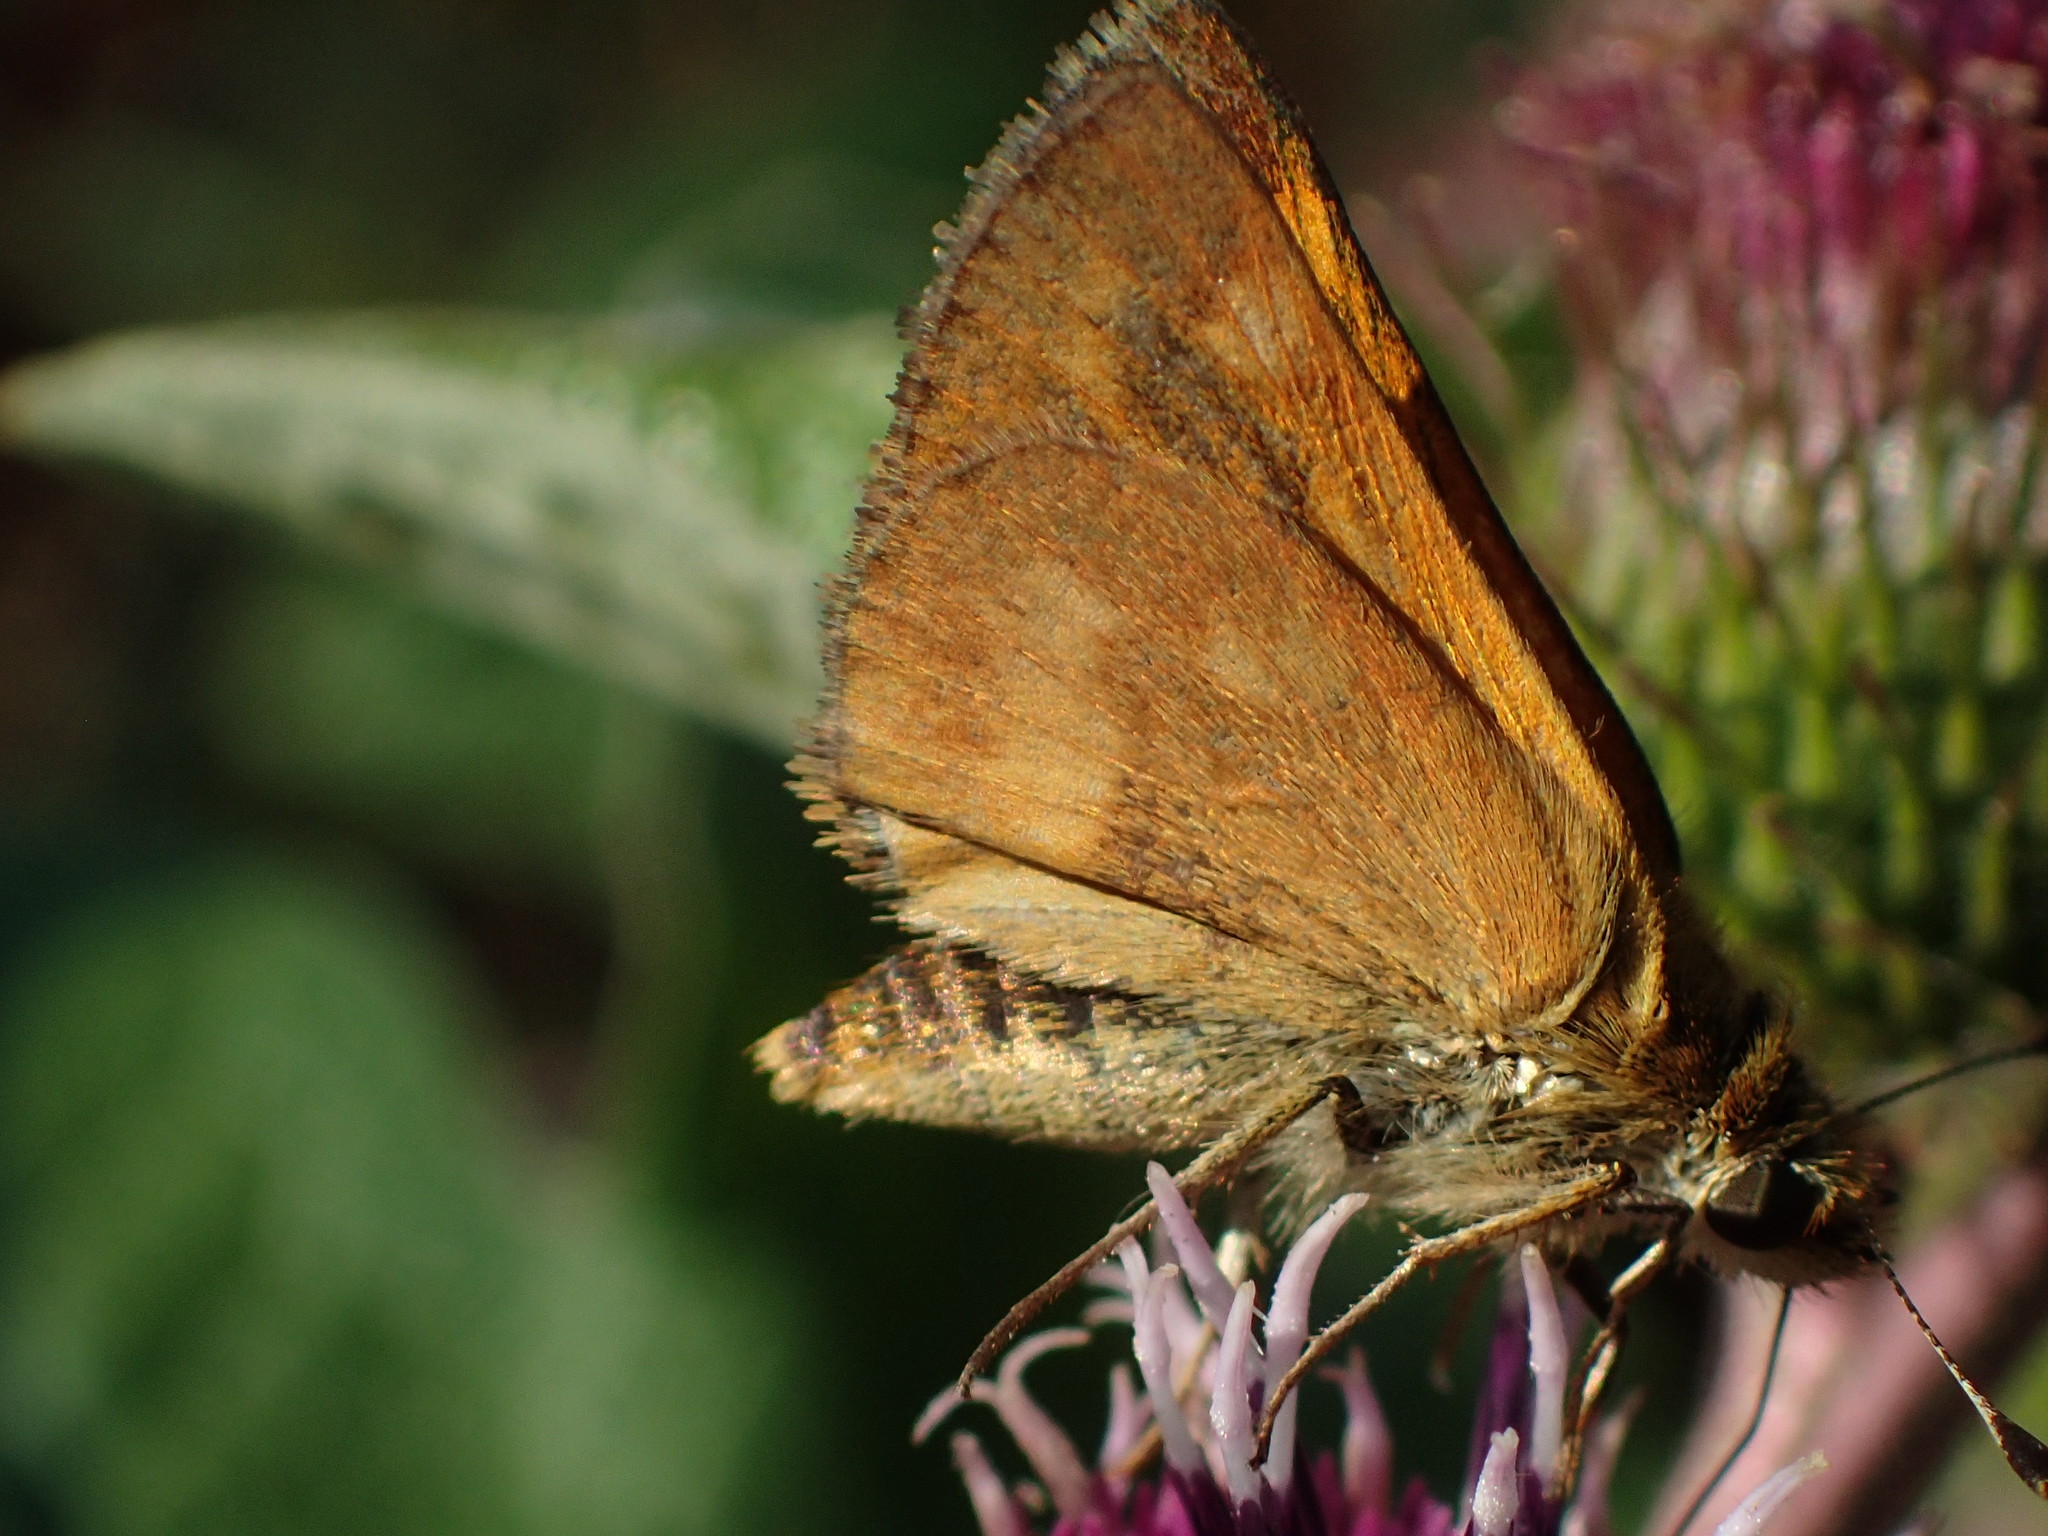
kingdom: Animalia
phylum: Arthropoda
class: Insecta
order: Lepidoptera
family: Hesperiidae
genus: Ochlodes
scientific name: Ochlodes sylvanoides
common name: Woodland skipper
